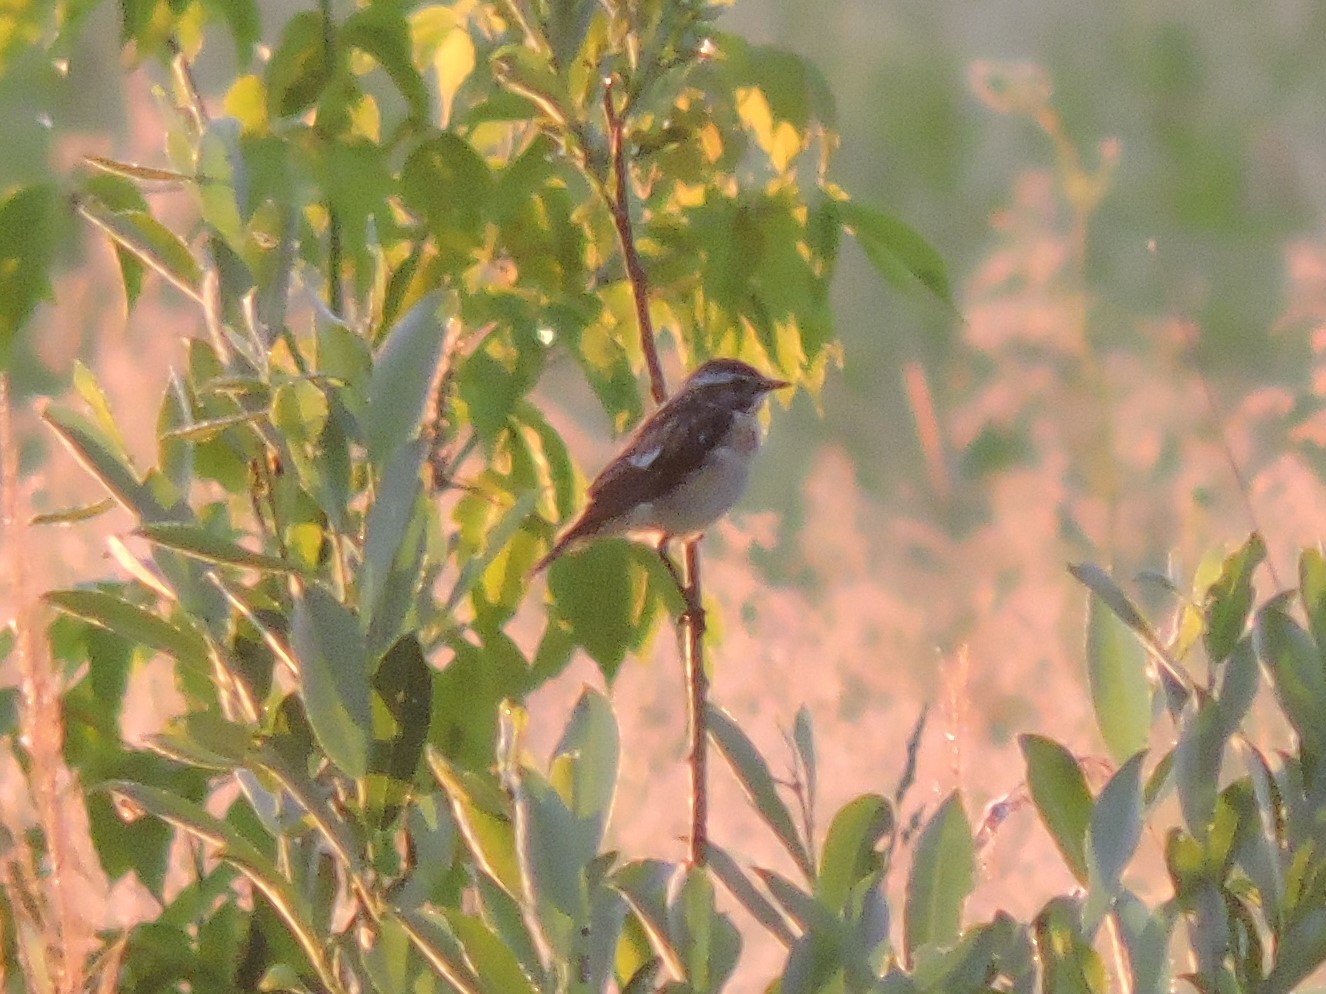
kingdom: Animalia
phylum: Chordata
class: Aves
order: Passeriformes
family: Muscicapidae
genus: Saxicola
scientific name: Saxicola rubetra
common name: Whinchat
